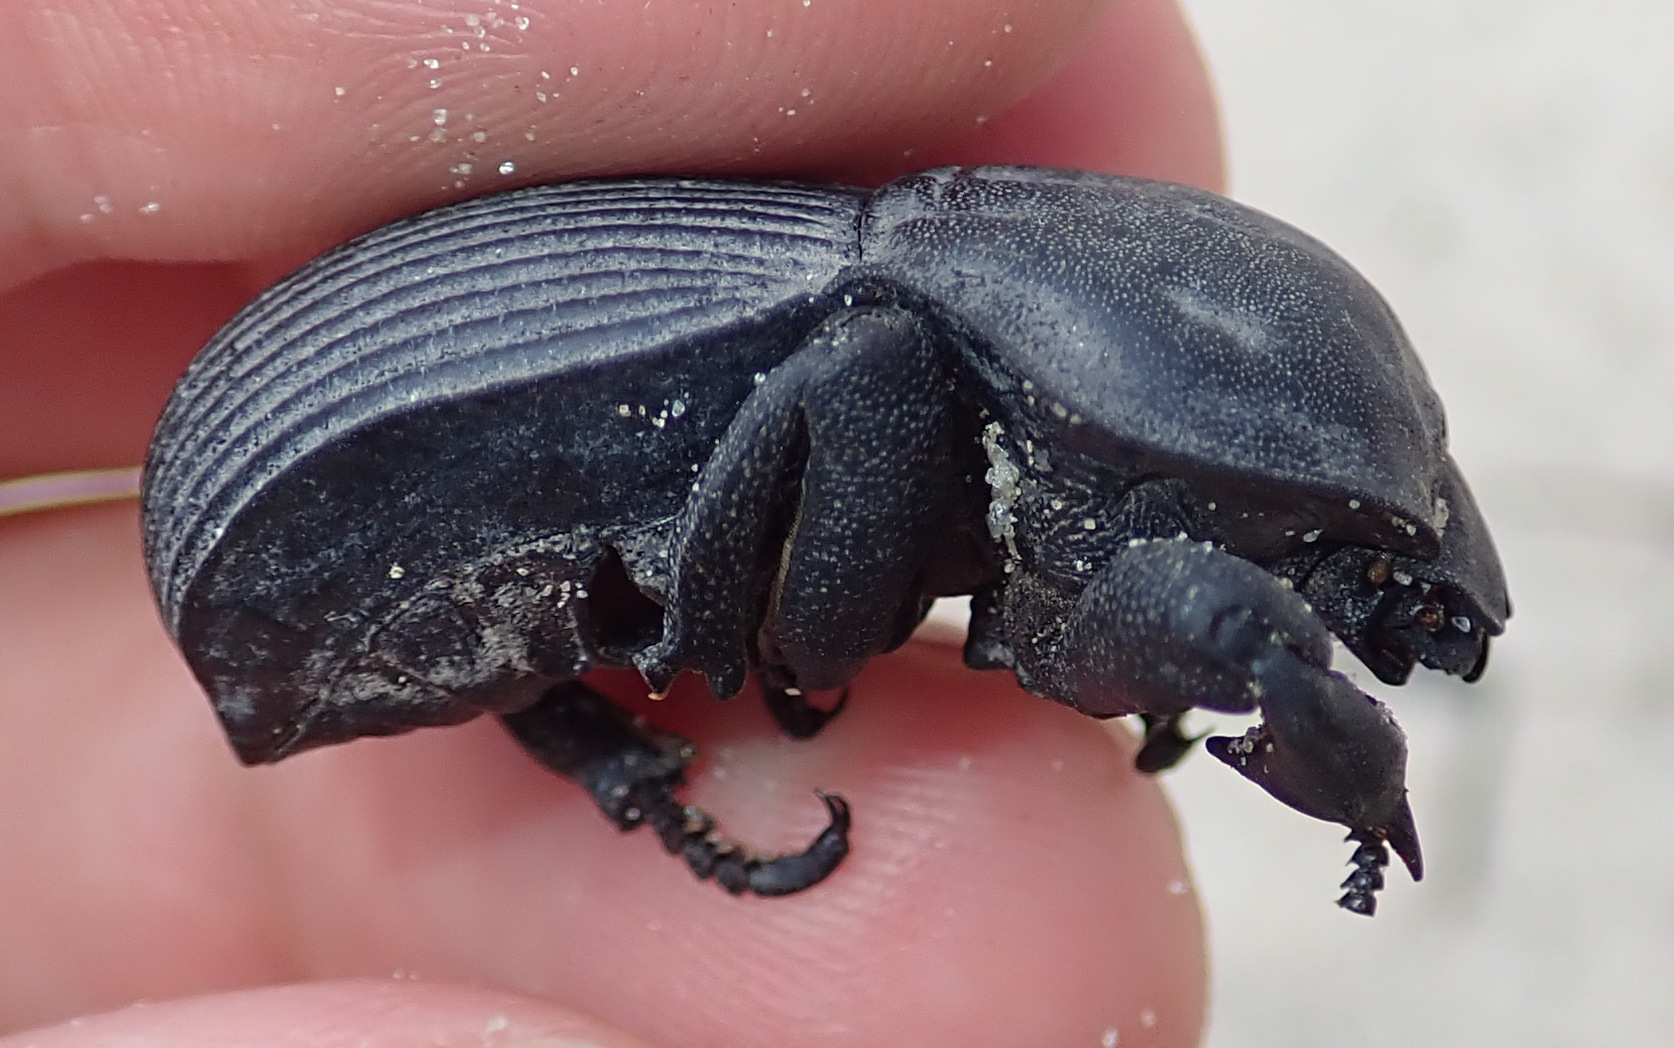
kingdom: Animalia
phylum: Arthropoda
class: Insecta
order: Coleoptera
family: Tenebrionidae
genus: Anomalipus
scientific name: Anomalipus
